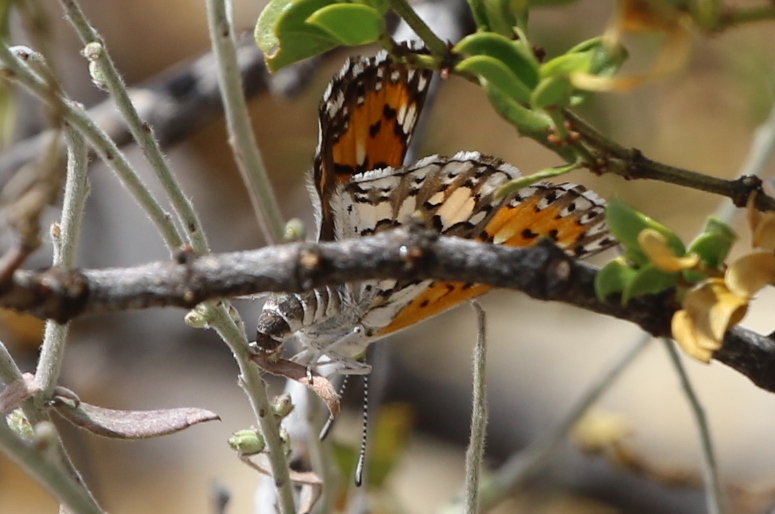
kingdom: Animalia
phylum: Arthropoda
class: Insecta
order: Lepidoptera
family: Riodinidae
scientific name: Riodinidae
